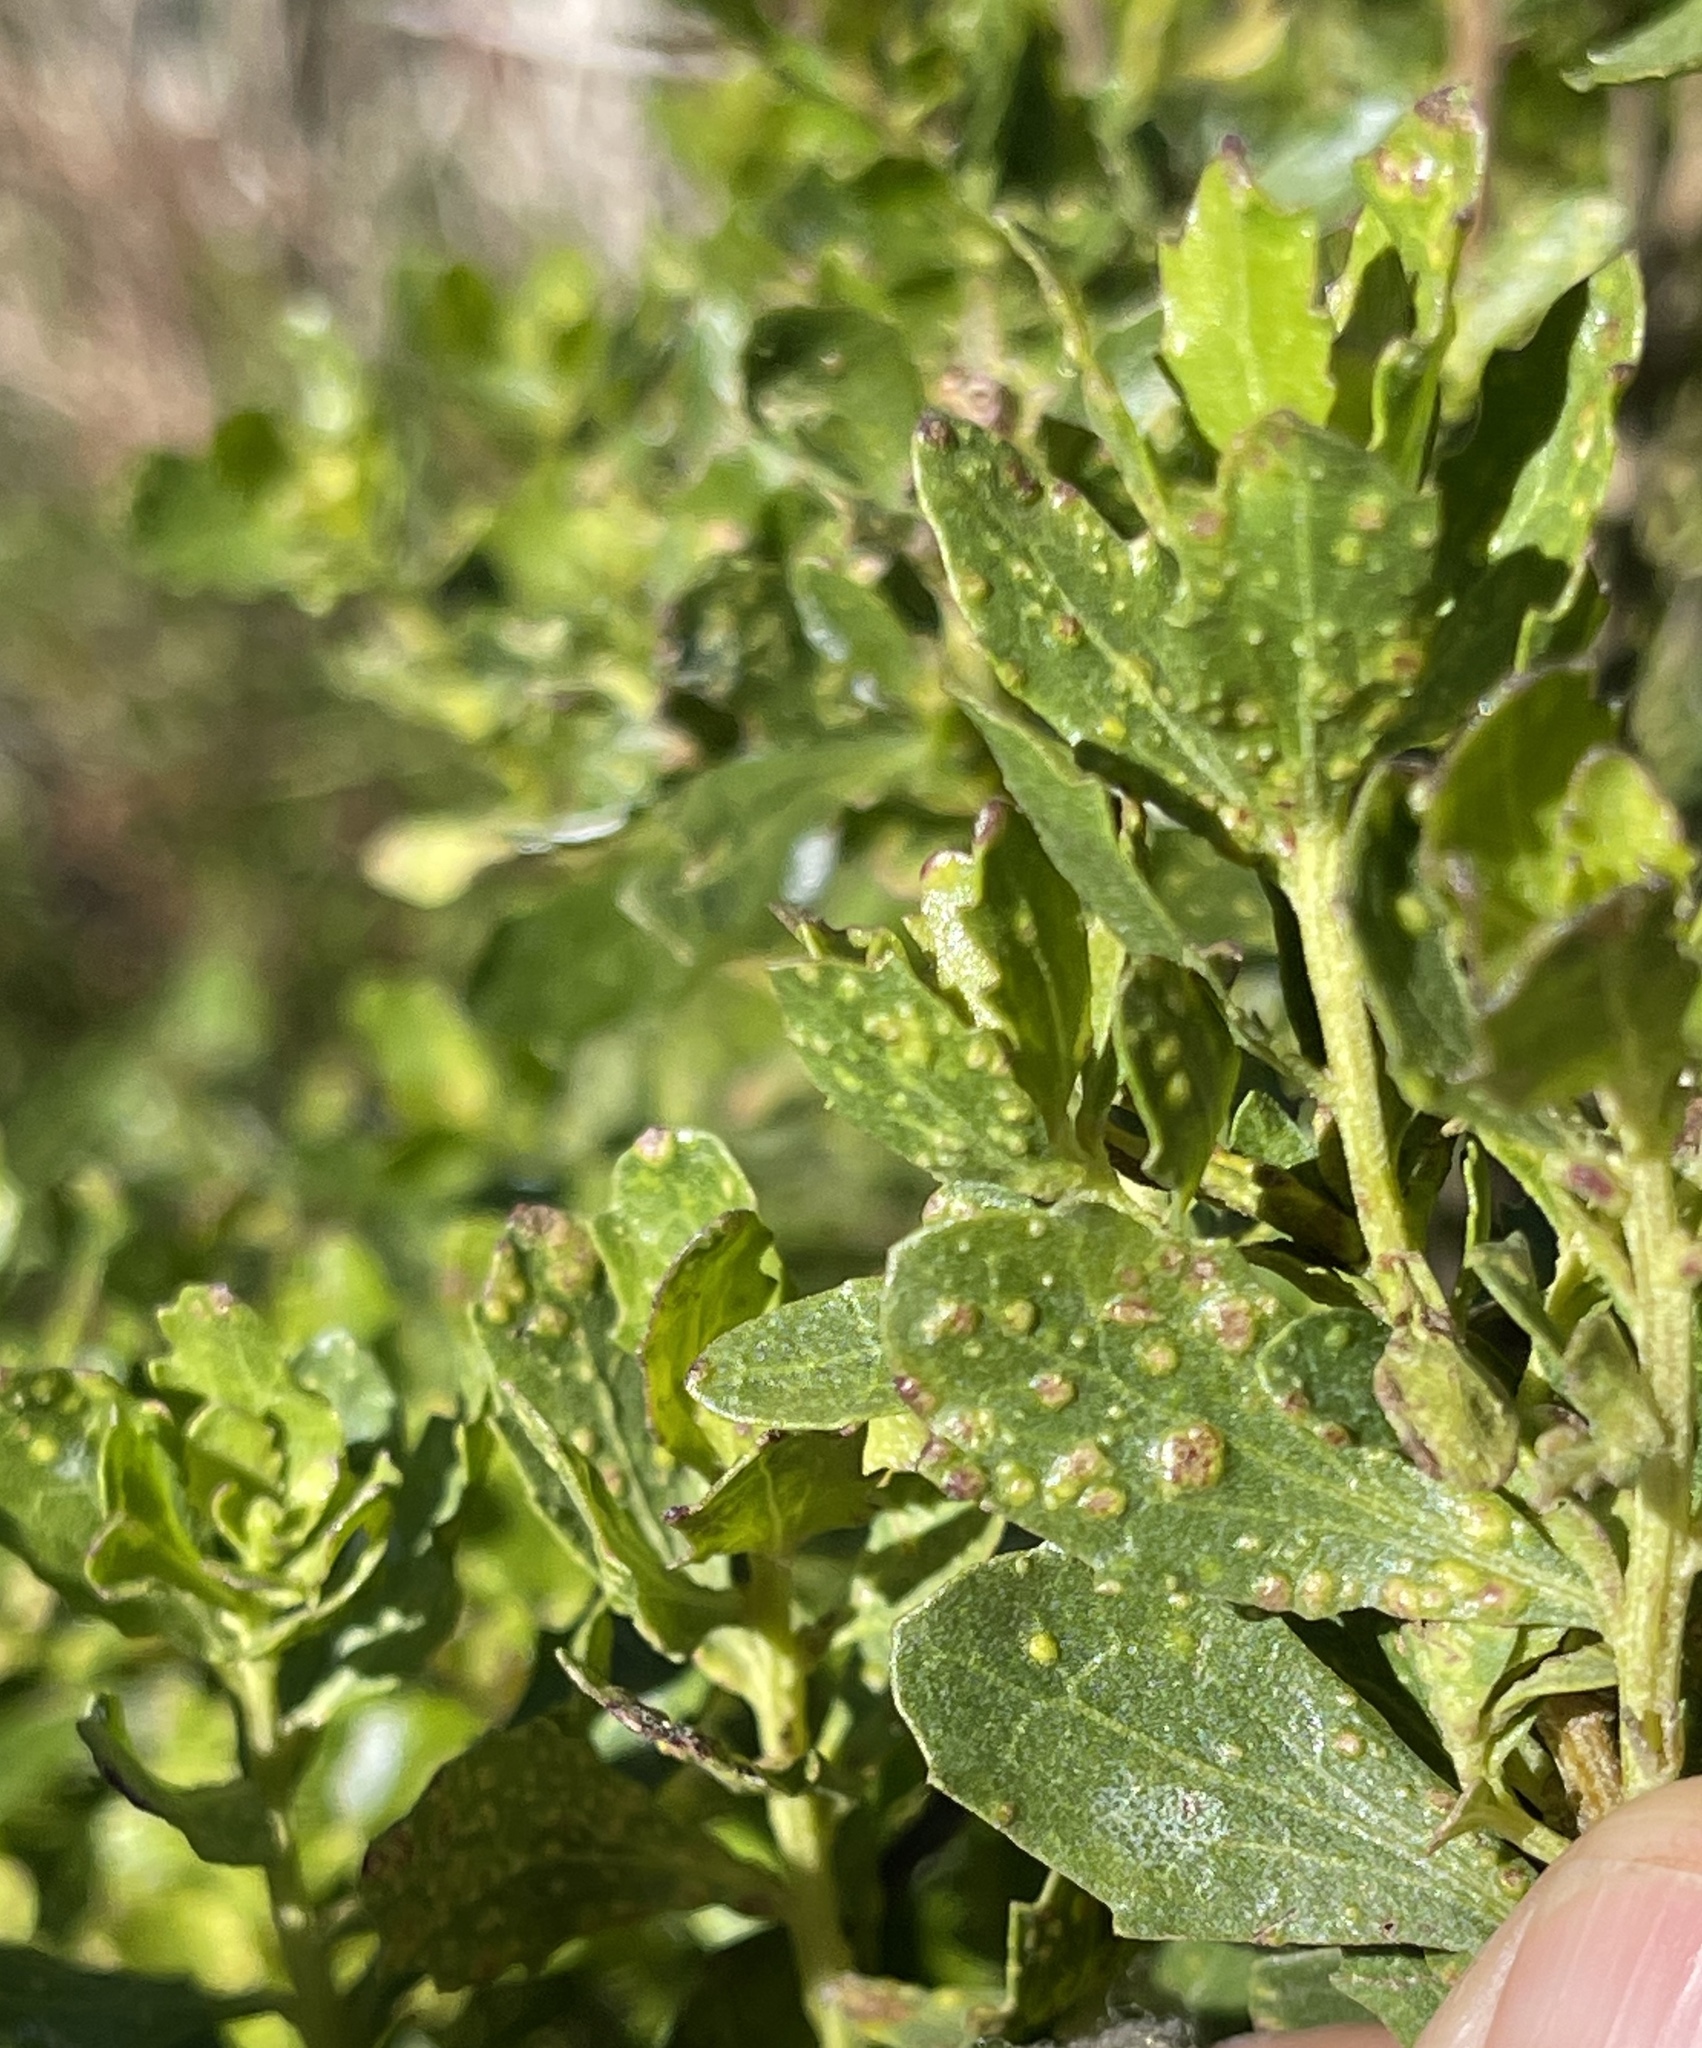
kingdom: Animalia
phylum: Arthropoda
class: Arachnida
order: Trombidiformes
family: Eriophyidae
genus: Aceria
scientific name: Aceria
